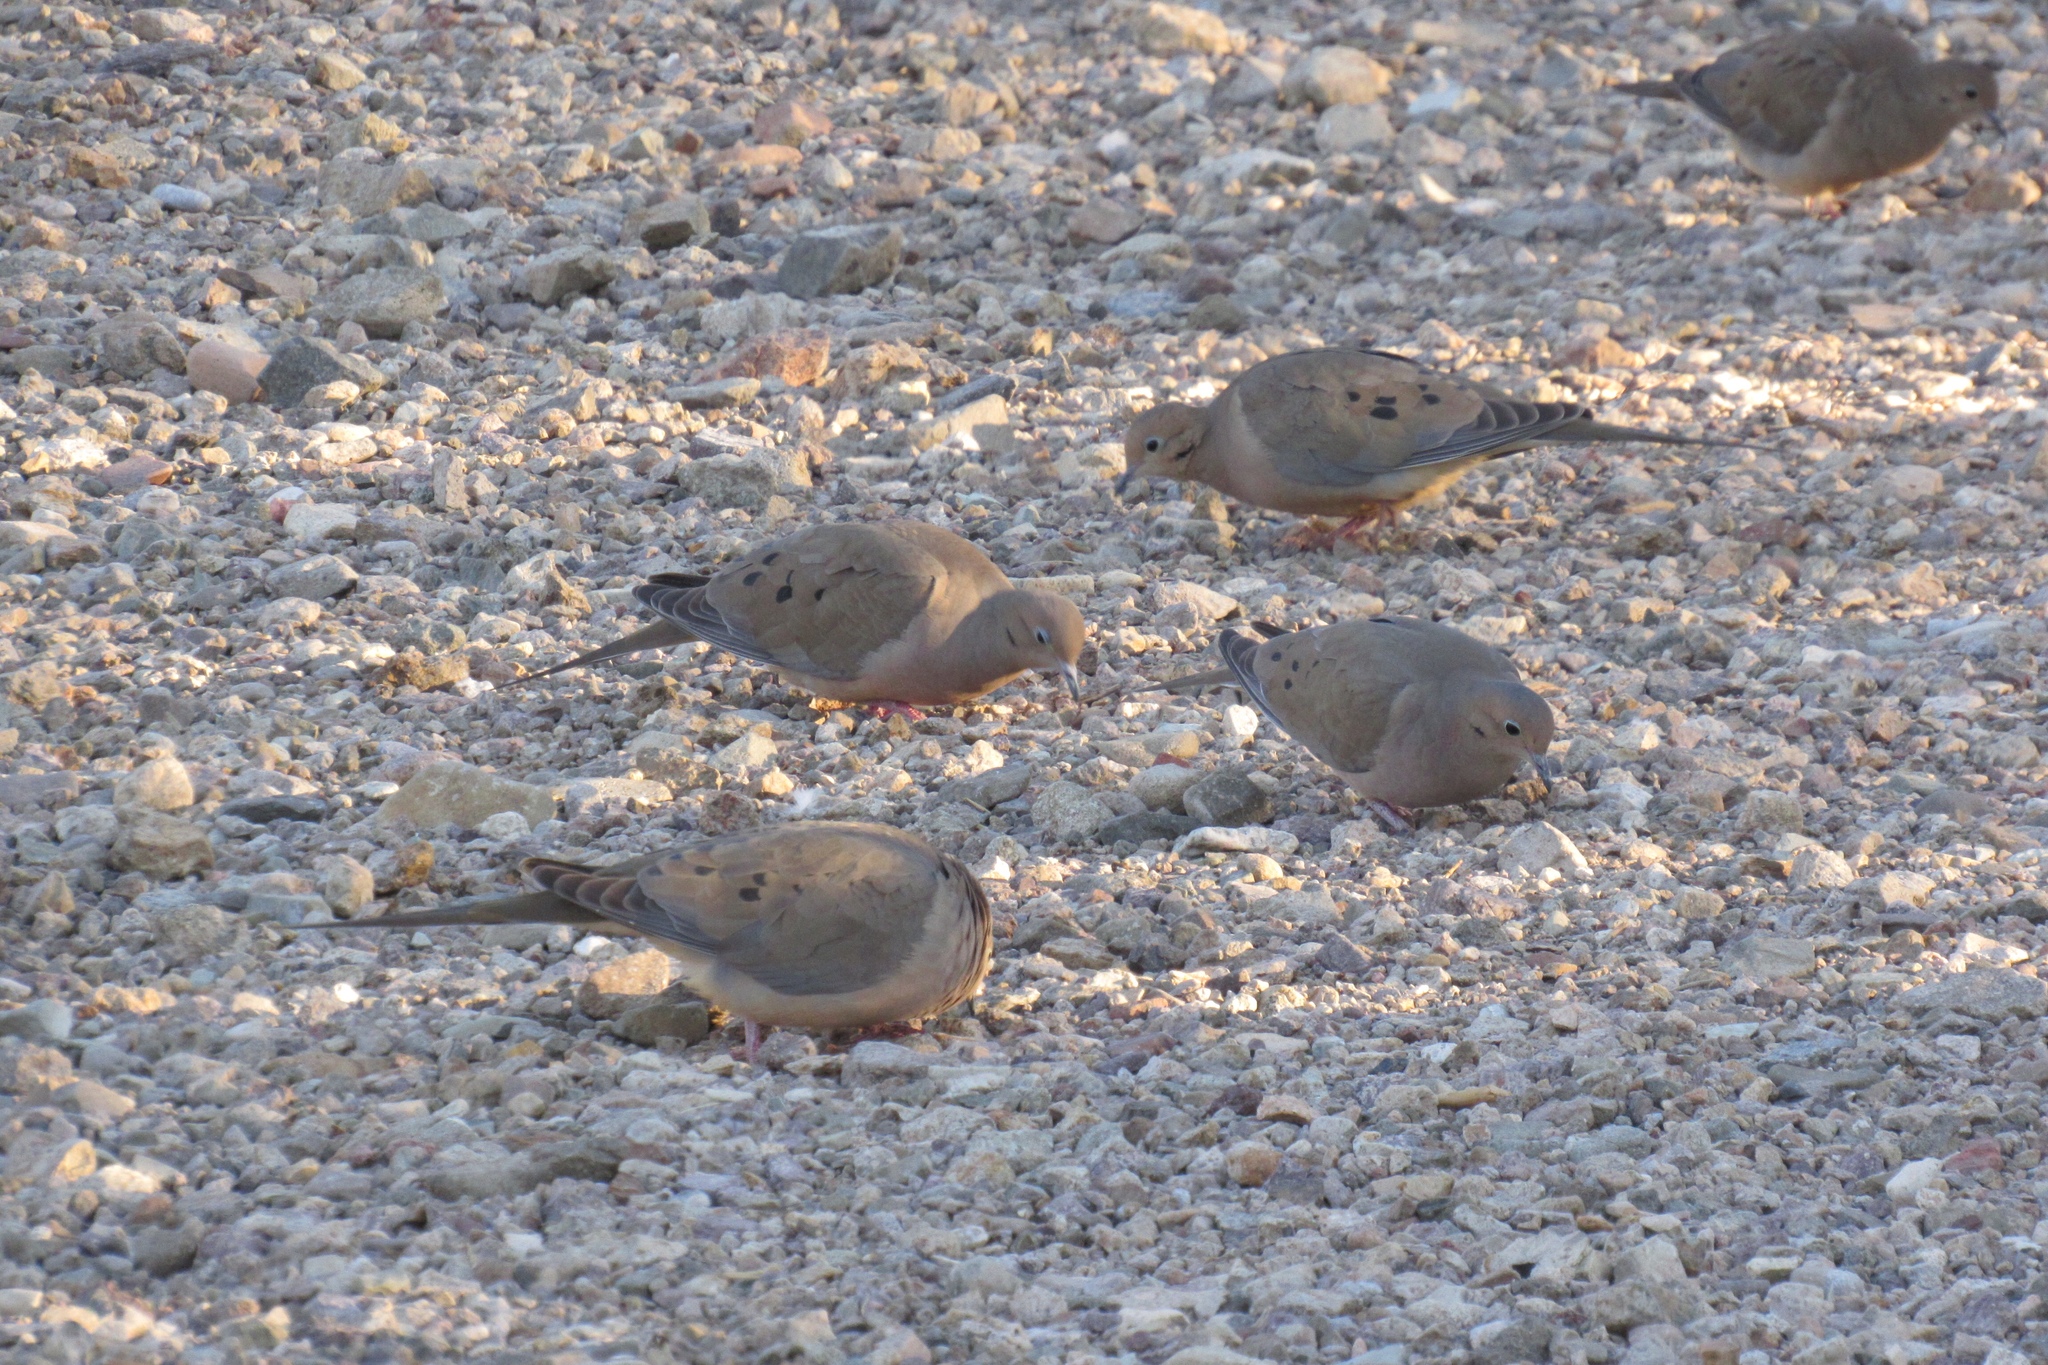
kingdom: Animalia
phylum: Chordata
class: Aves
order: Columbiformes
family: Columbidae
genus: Zenaida
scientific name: Zenaida macroura
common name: Mourning dove
